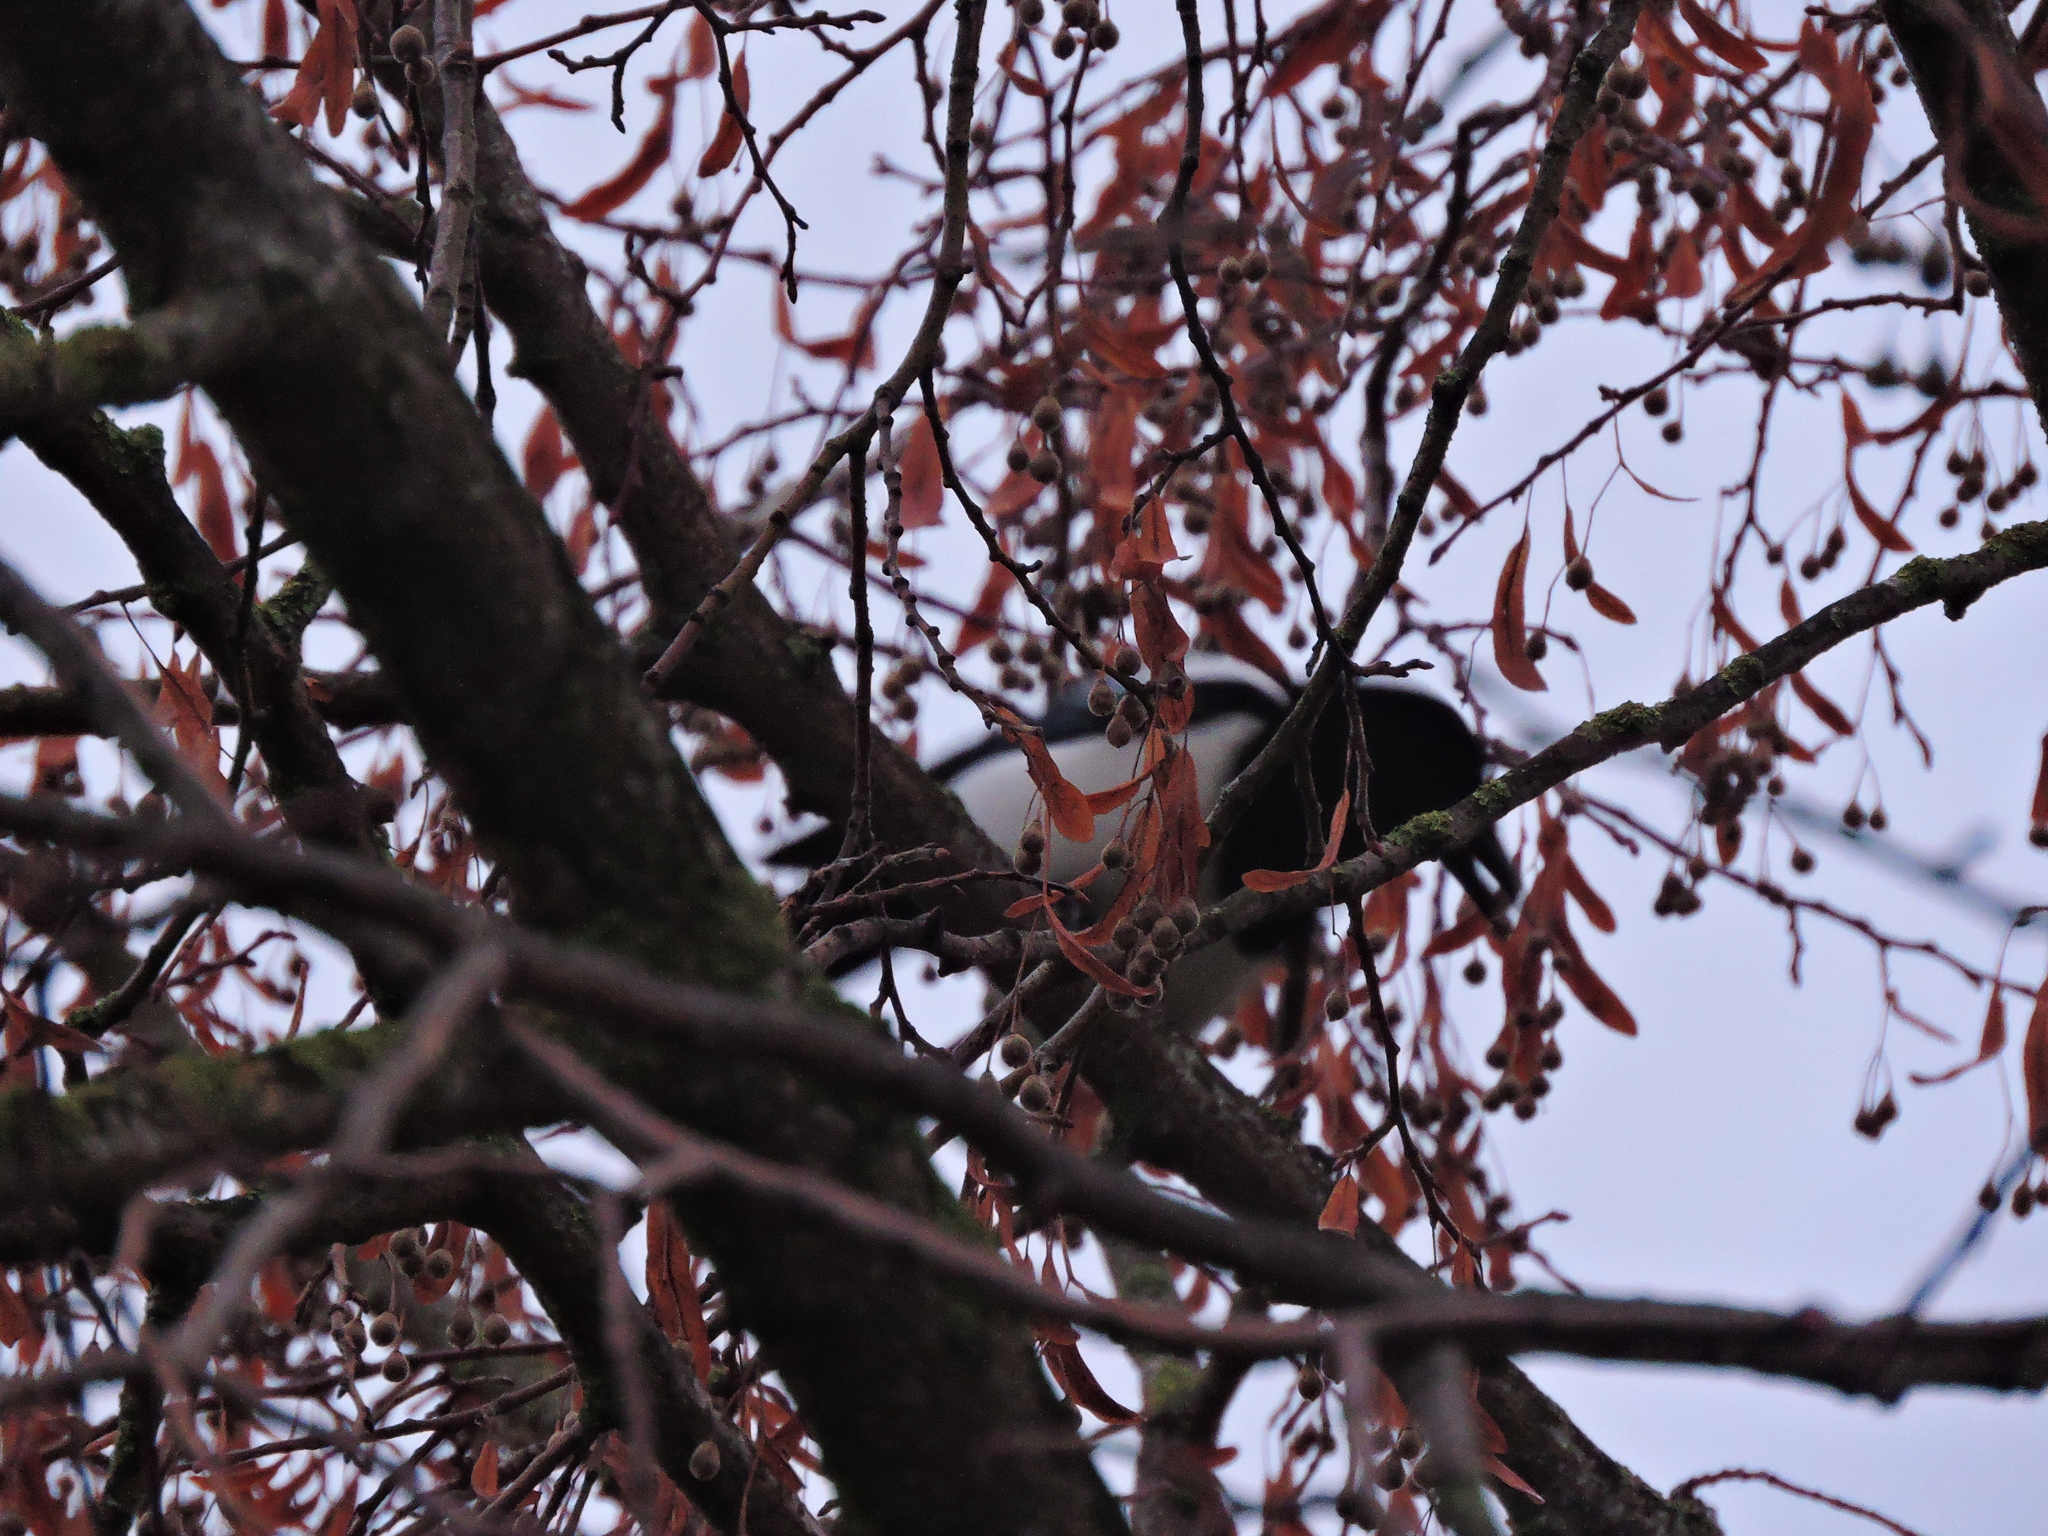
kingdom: Animalia
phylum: Chordata
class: Aves
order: Passeriformes
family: Corvidae
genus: Pica
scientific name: Pica pica
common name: Eurasian magpie
